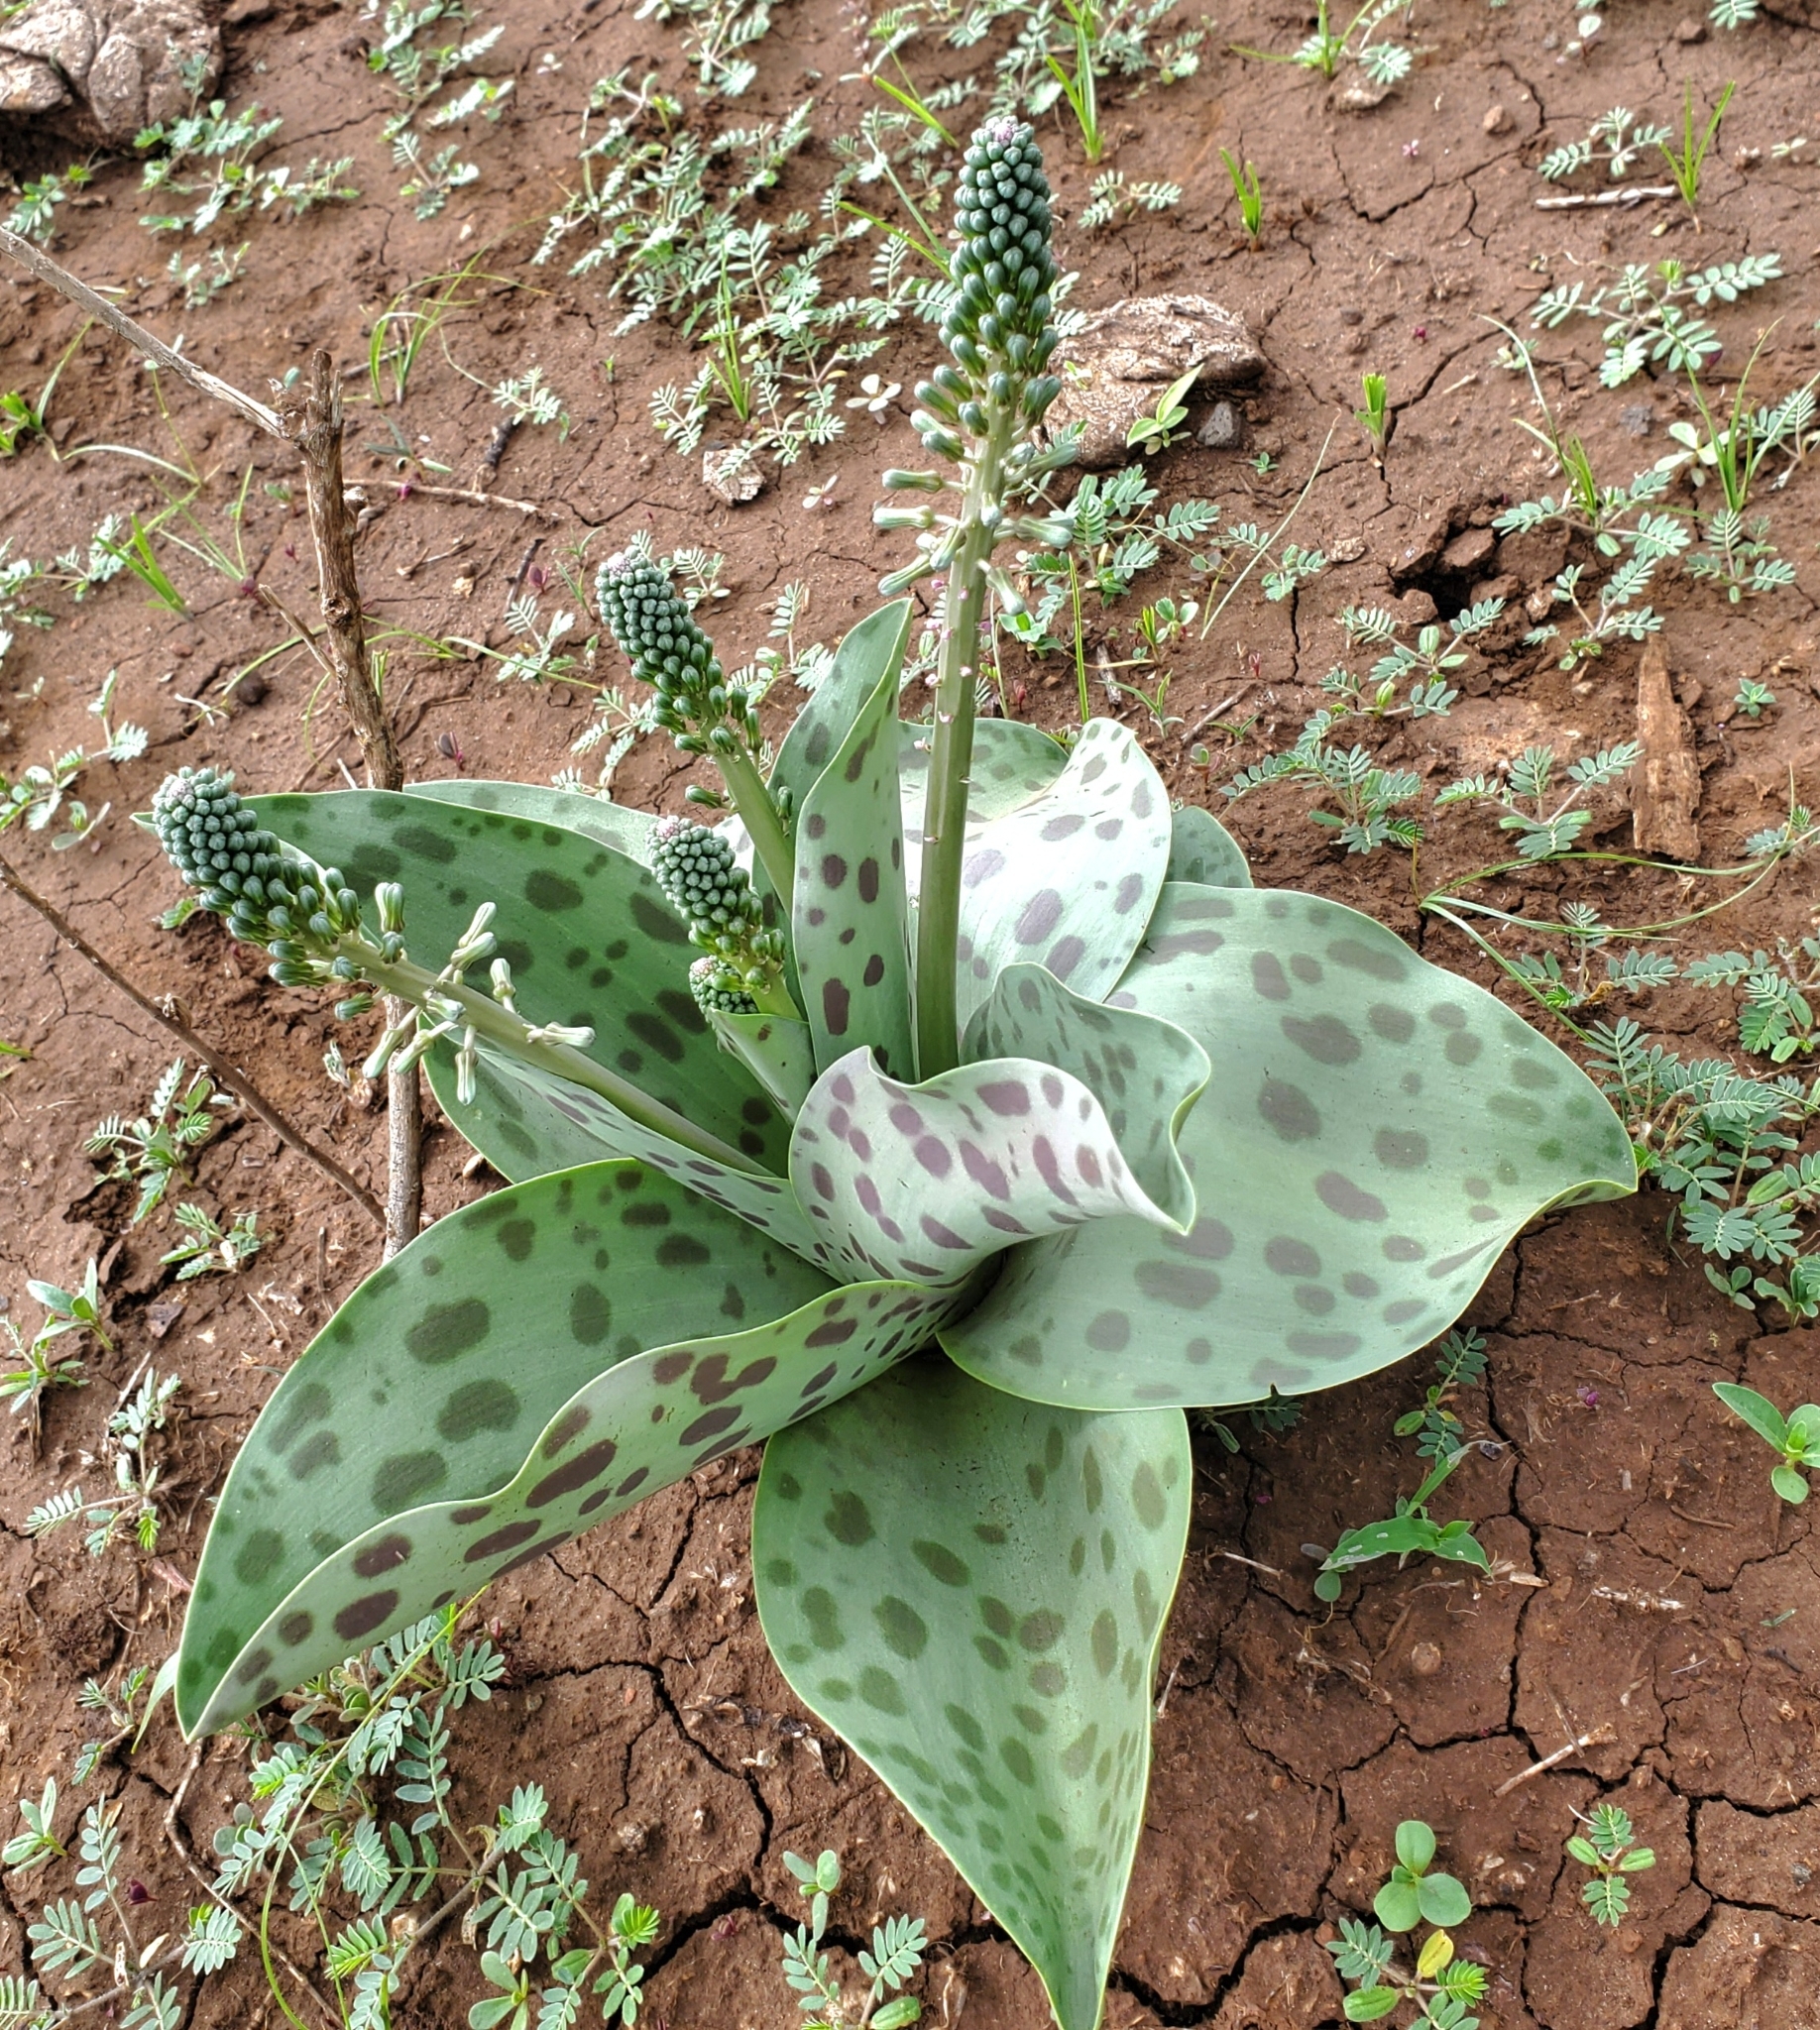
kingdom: Plantae
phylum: Tracheophyta
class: Liliopsida
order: Asparagales
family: Asparagaceae
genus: Ledebouria
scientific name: Ledebouria kirkii
